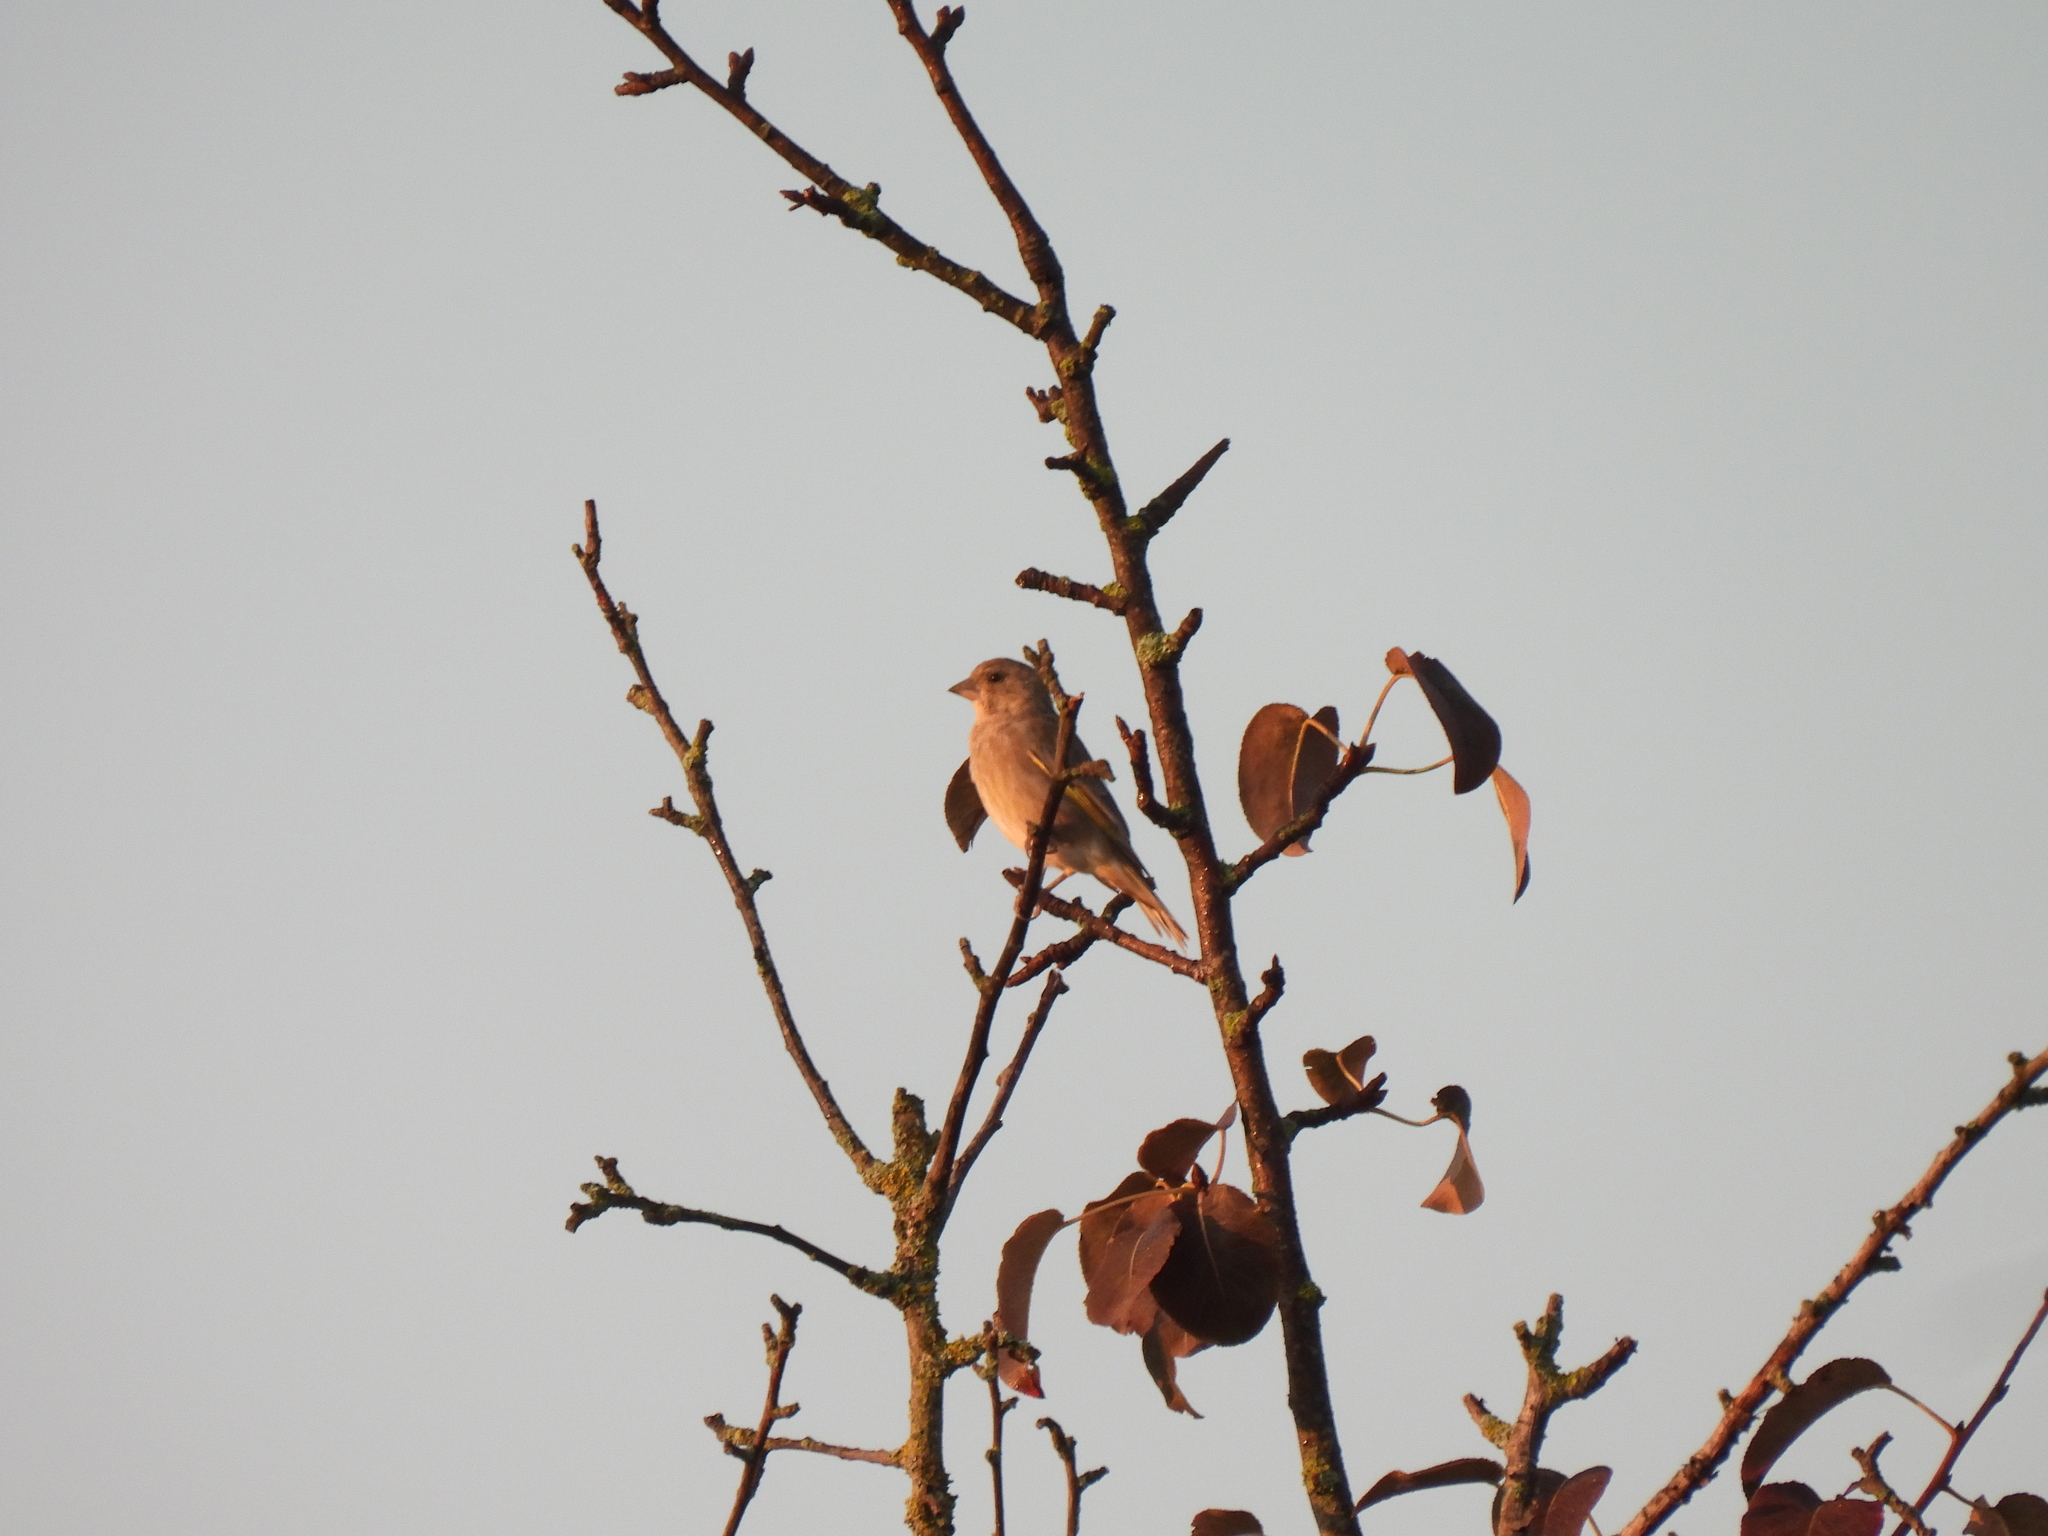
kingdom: Plantae
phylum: Tracheophyta
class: Liliopsida
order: Poales
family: Poaceae
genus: Chloris
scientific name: Chloris chloris
